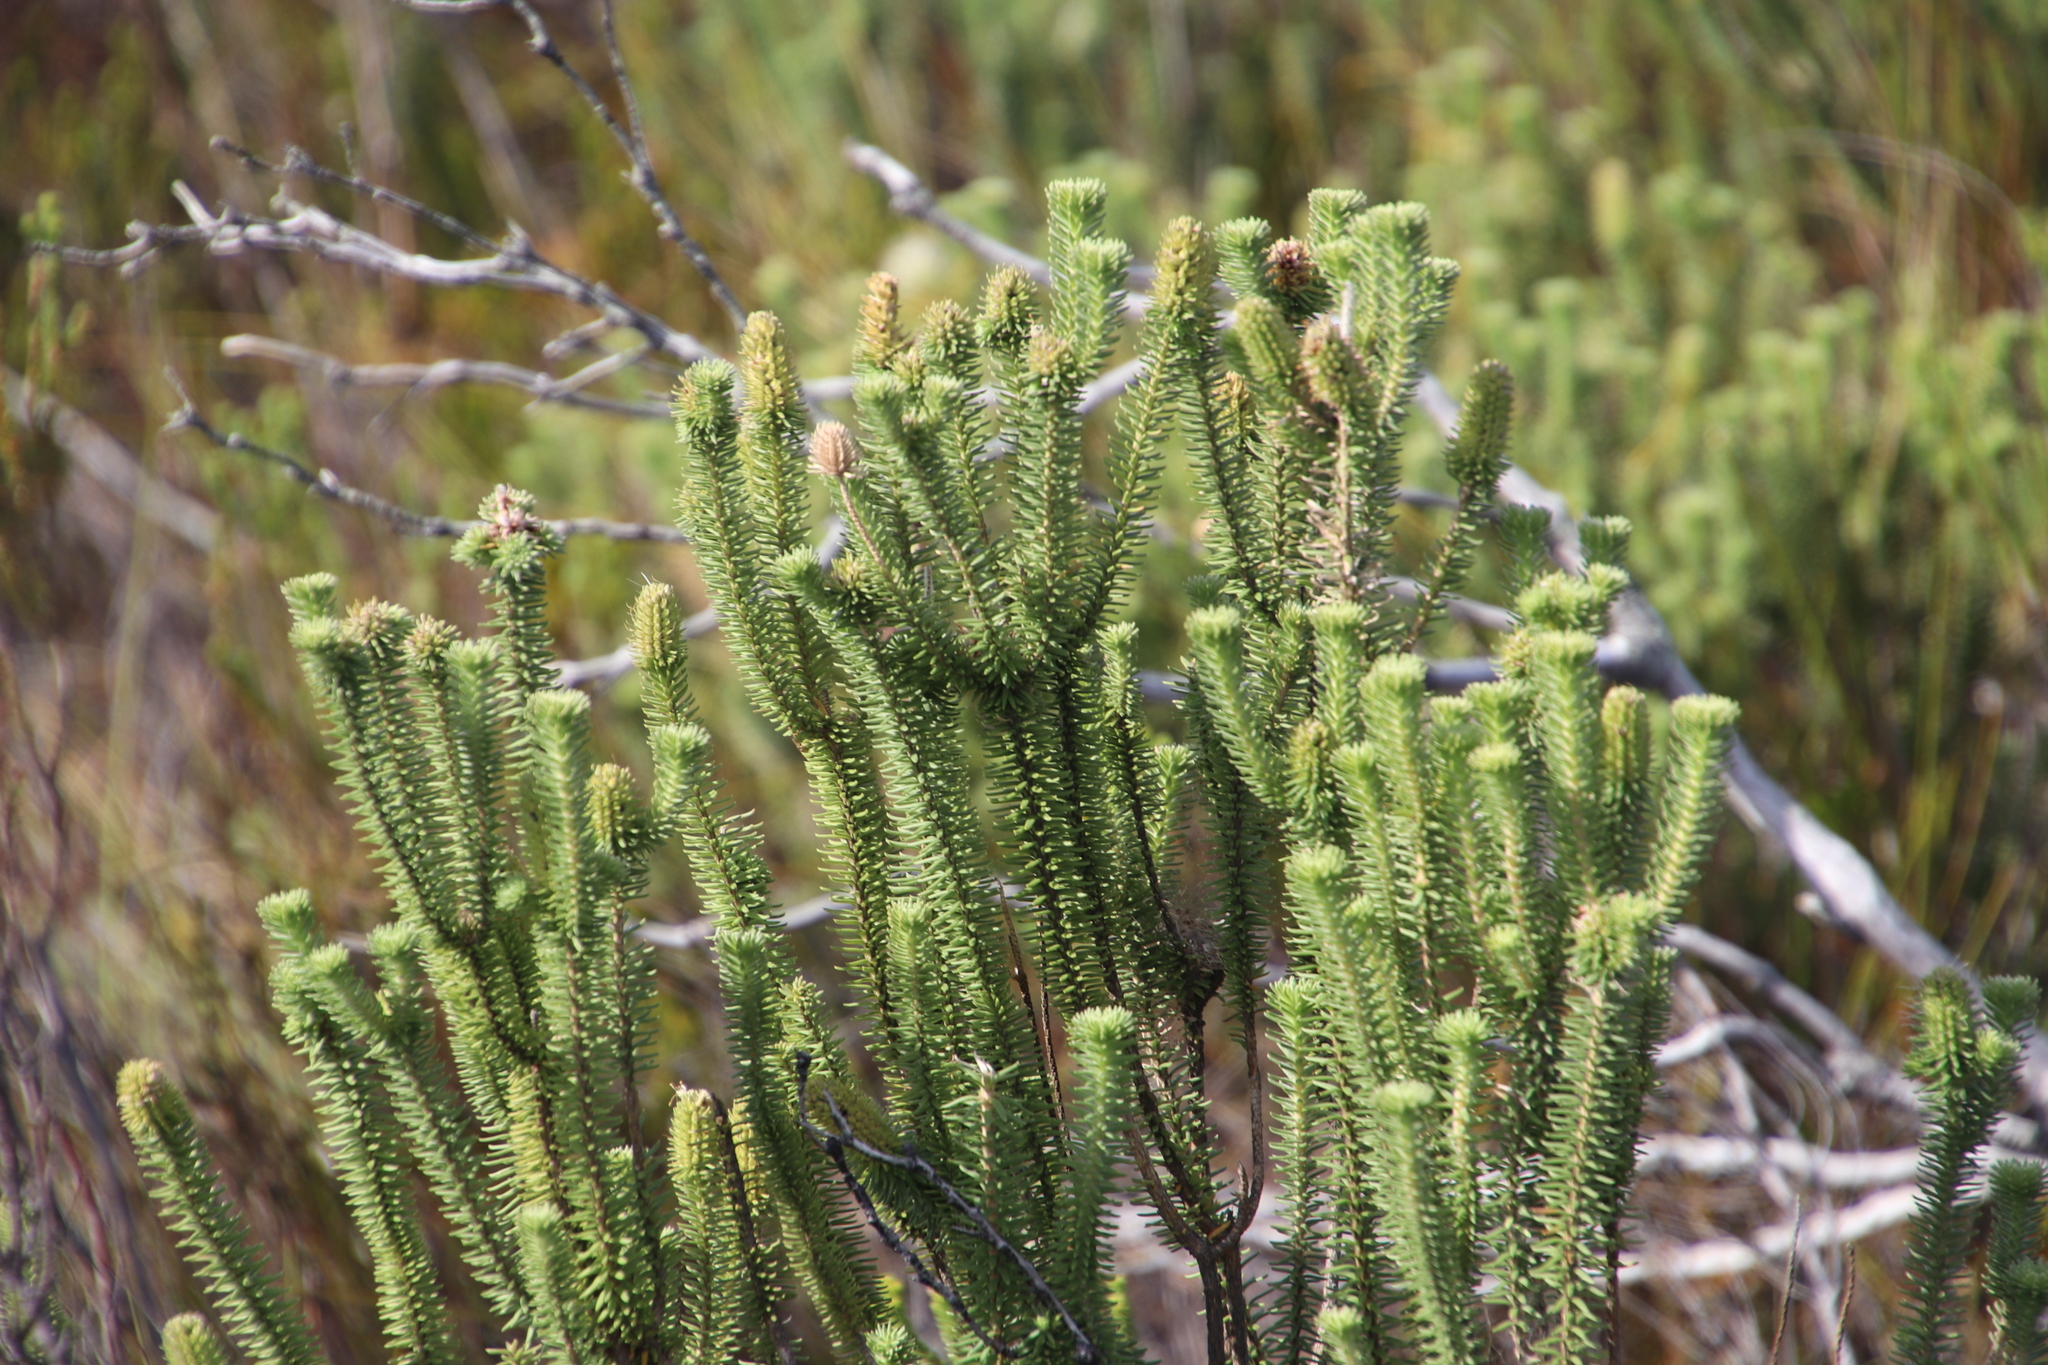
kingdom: Plantae
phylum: Tracheophyta
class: Magnoliopsida
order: Lamiales
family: Stilbaceae
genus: Stilbe
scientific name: Stilbe vestita
